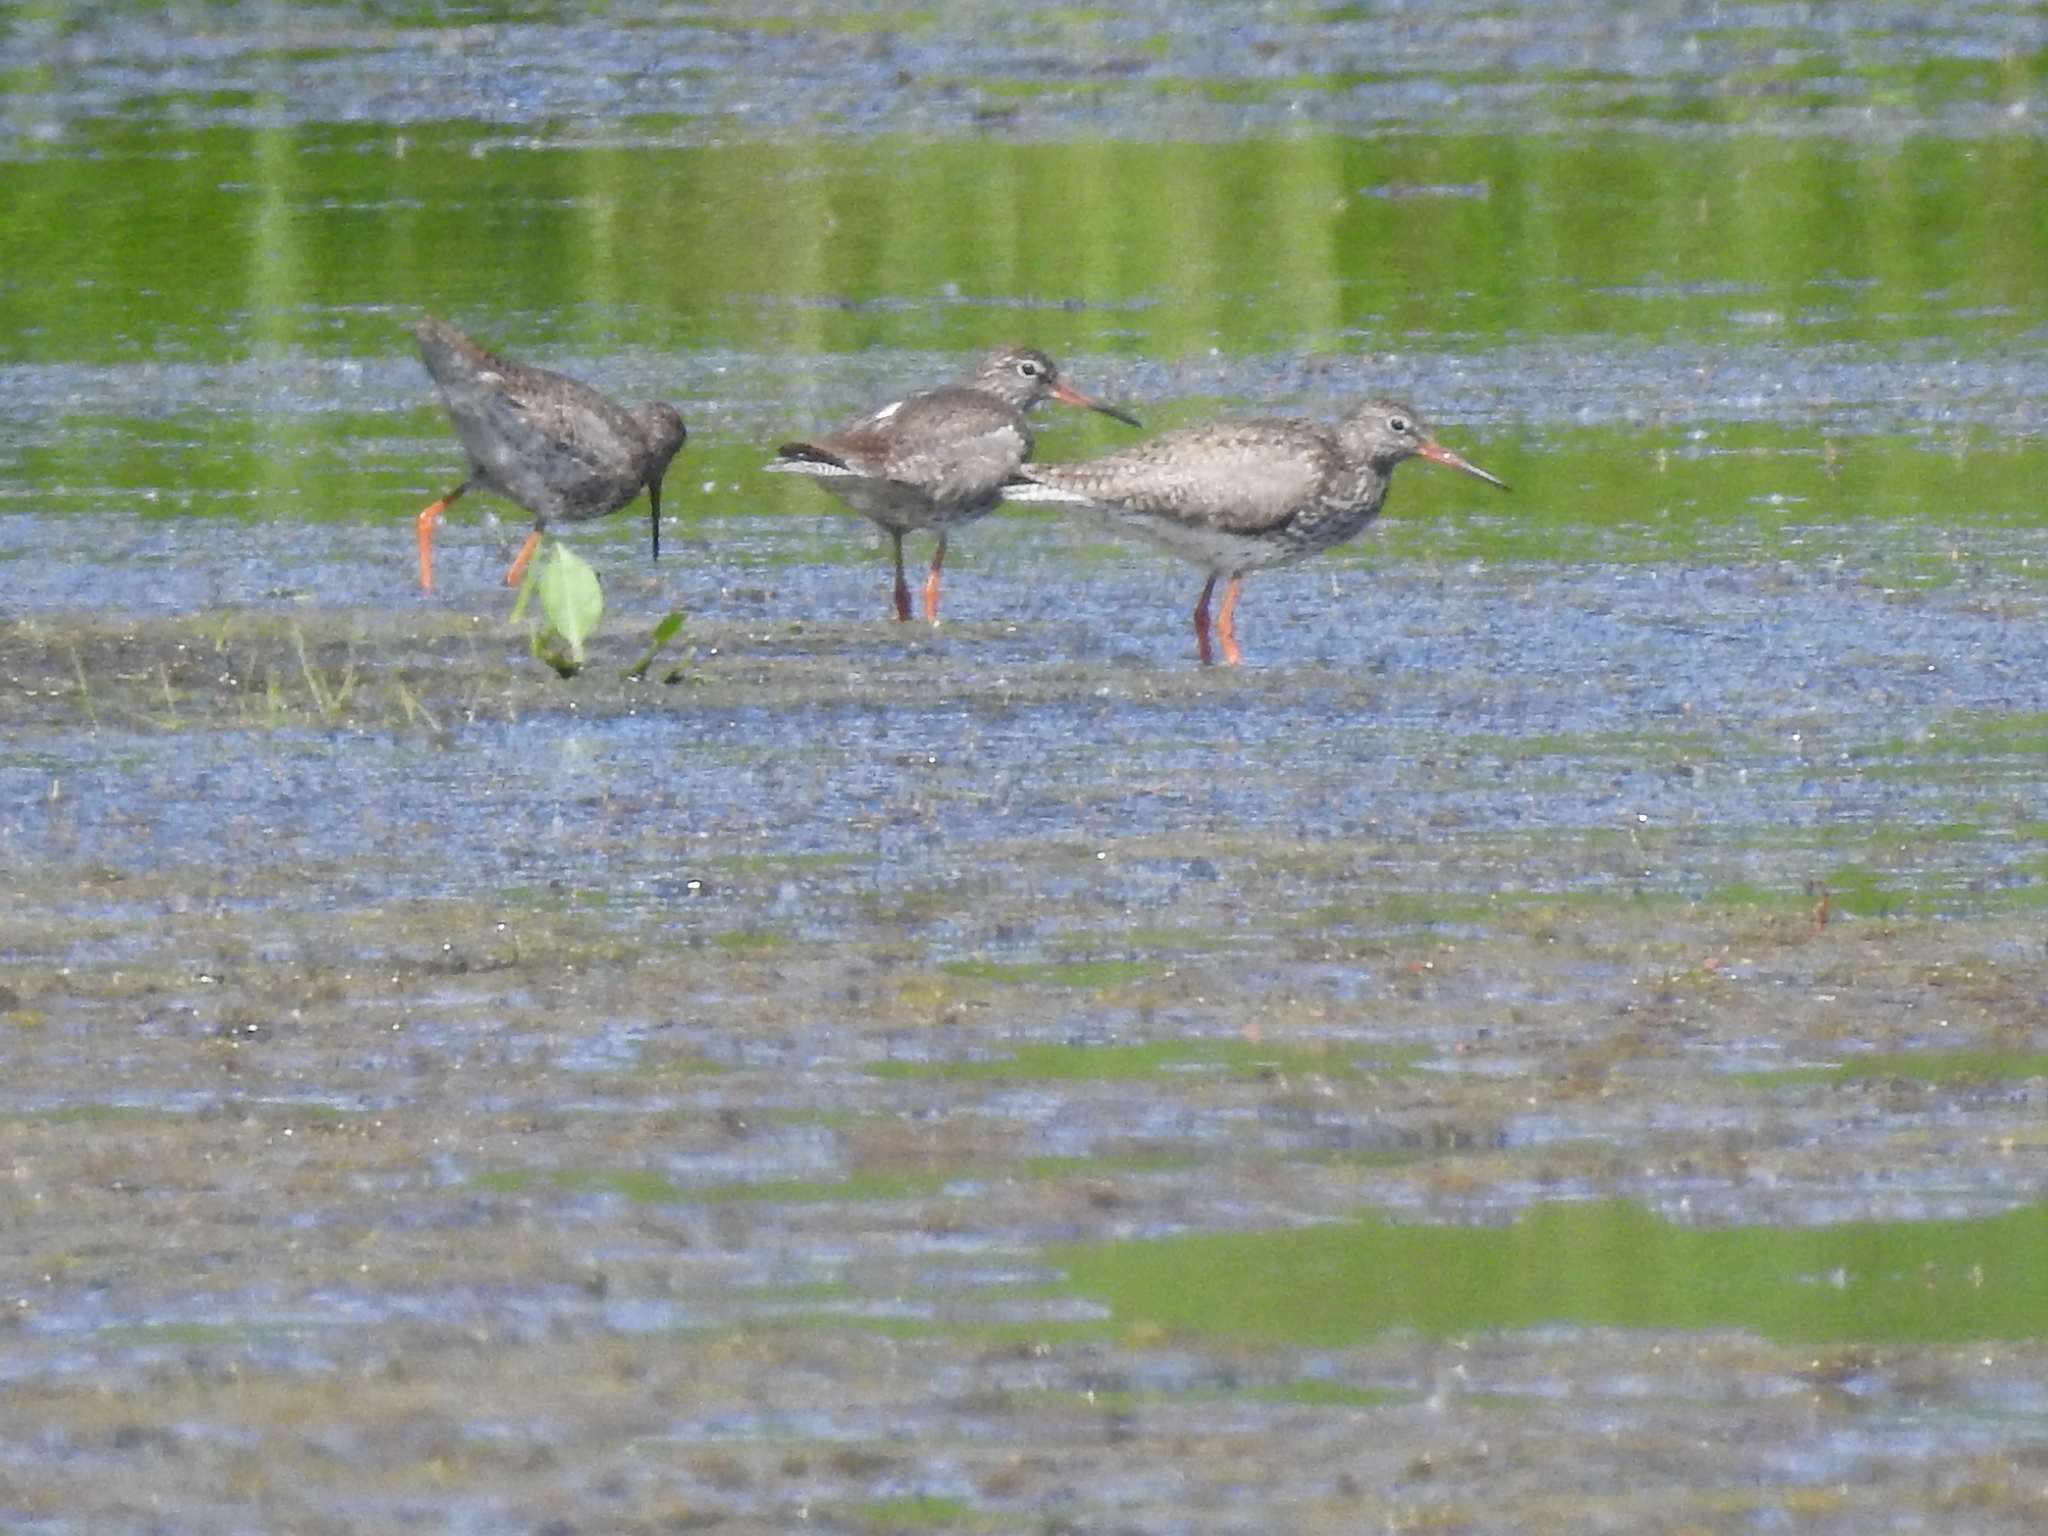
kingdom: Animalia
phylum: Chordata
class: Aves
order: Charadriiformes
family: Scolopacidae
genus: Tringa
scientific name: Tringa totanus
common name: Common redshank
